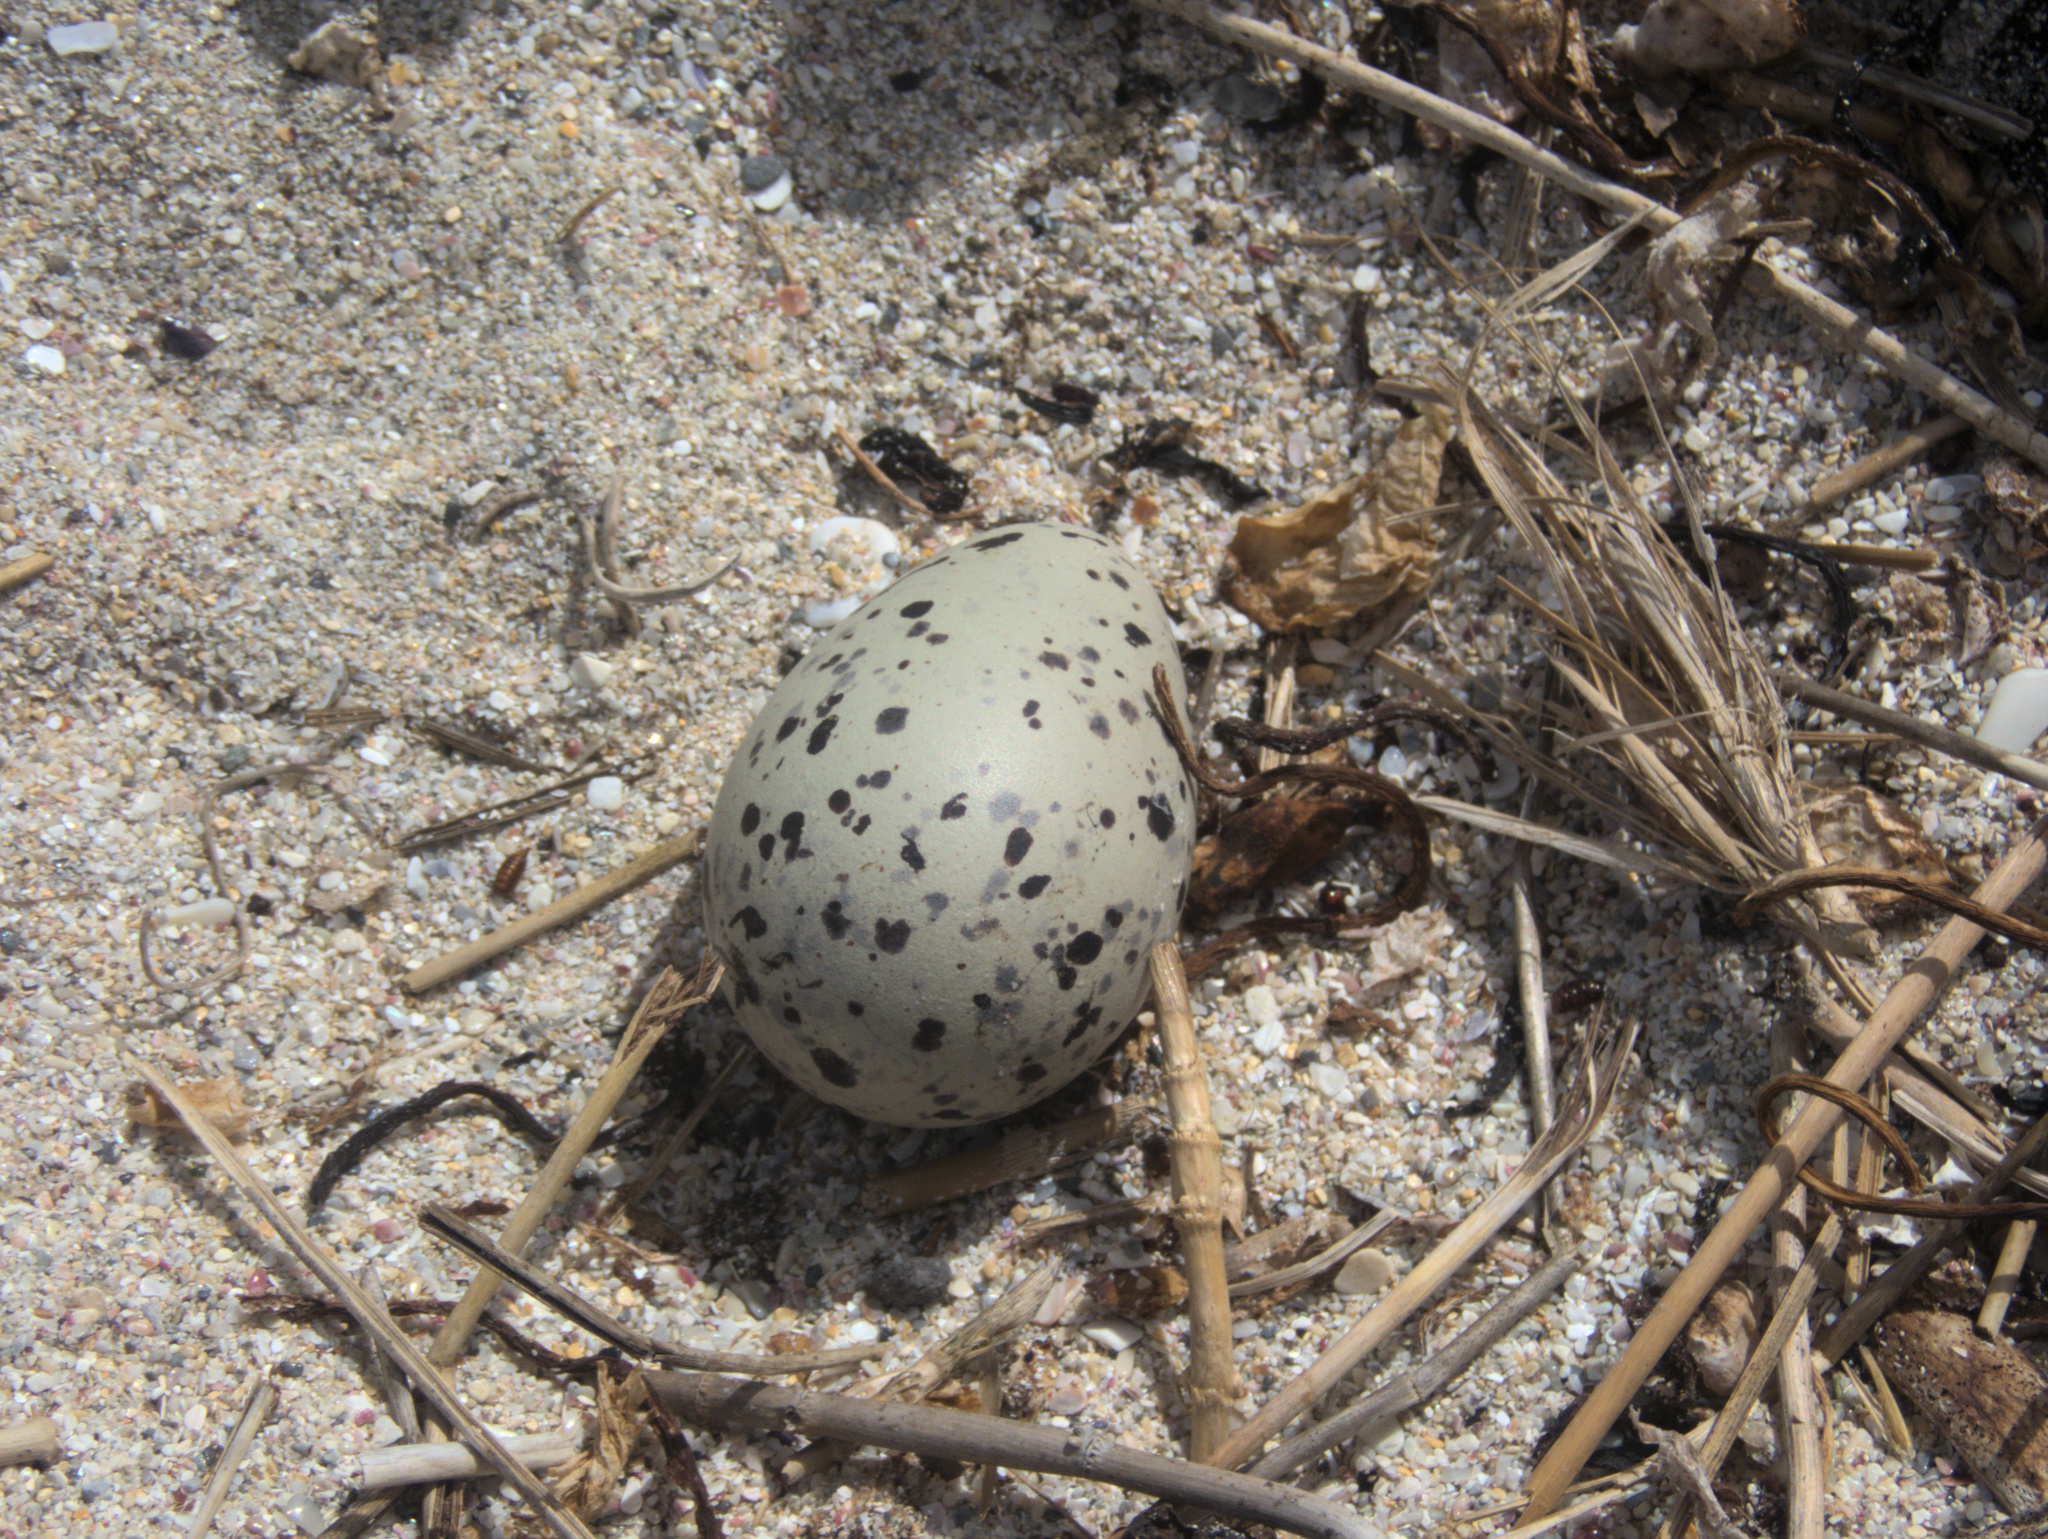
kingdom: Animalia
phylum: Chordata
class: Aves
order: Charadriiformes
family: Haematopodidae
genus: Haematopus
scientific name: Haematopus chathamensis
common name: Chatham oystercatcher
